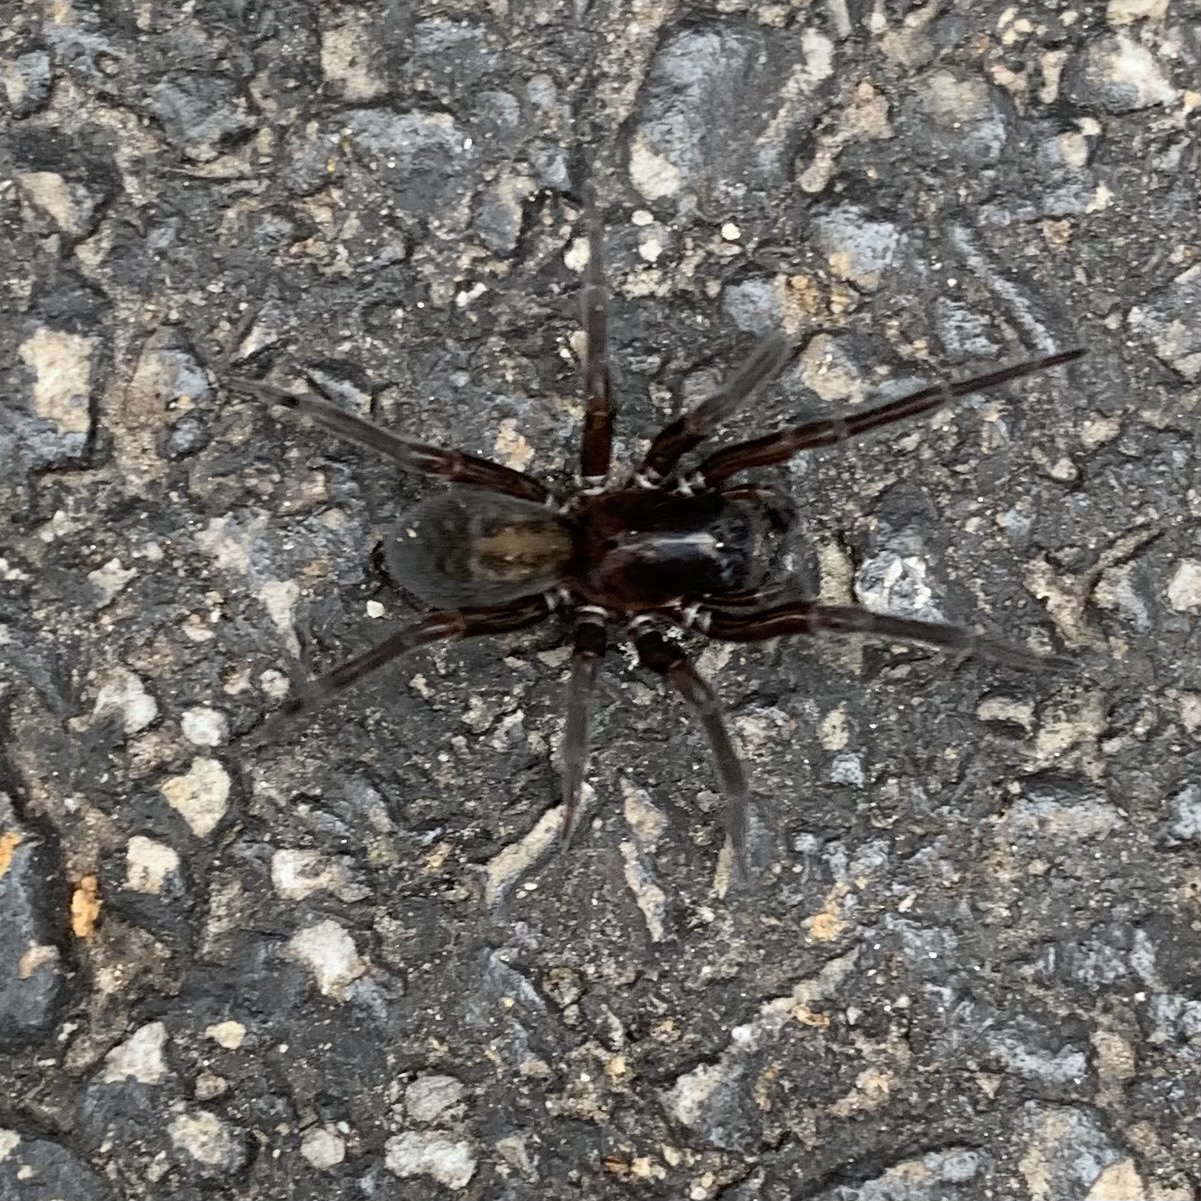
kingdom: Animalia
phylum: Arthropoda
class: Arachnida
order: Araneae
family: Amaurobiidae
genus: Amaurobius
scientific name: Amaurobius ferox
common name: Black laceweaver
